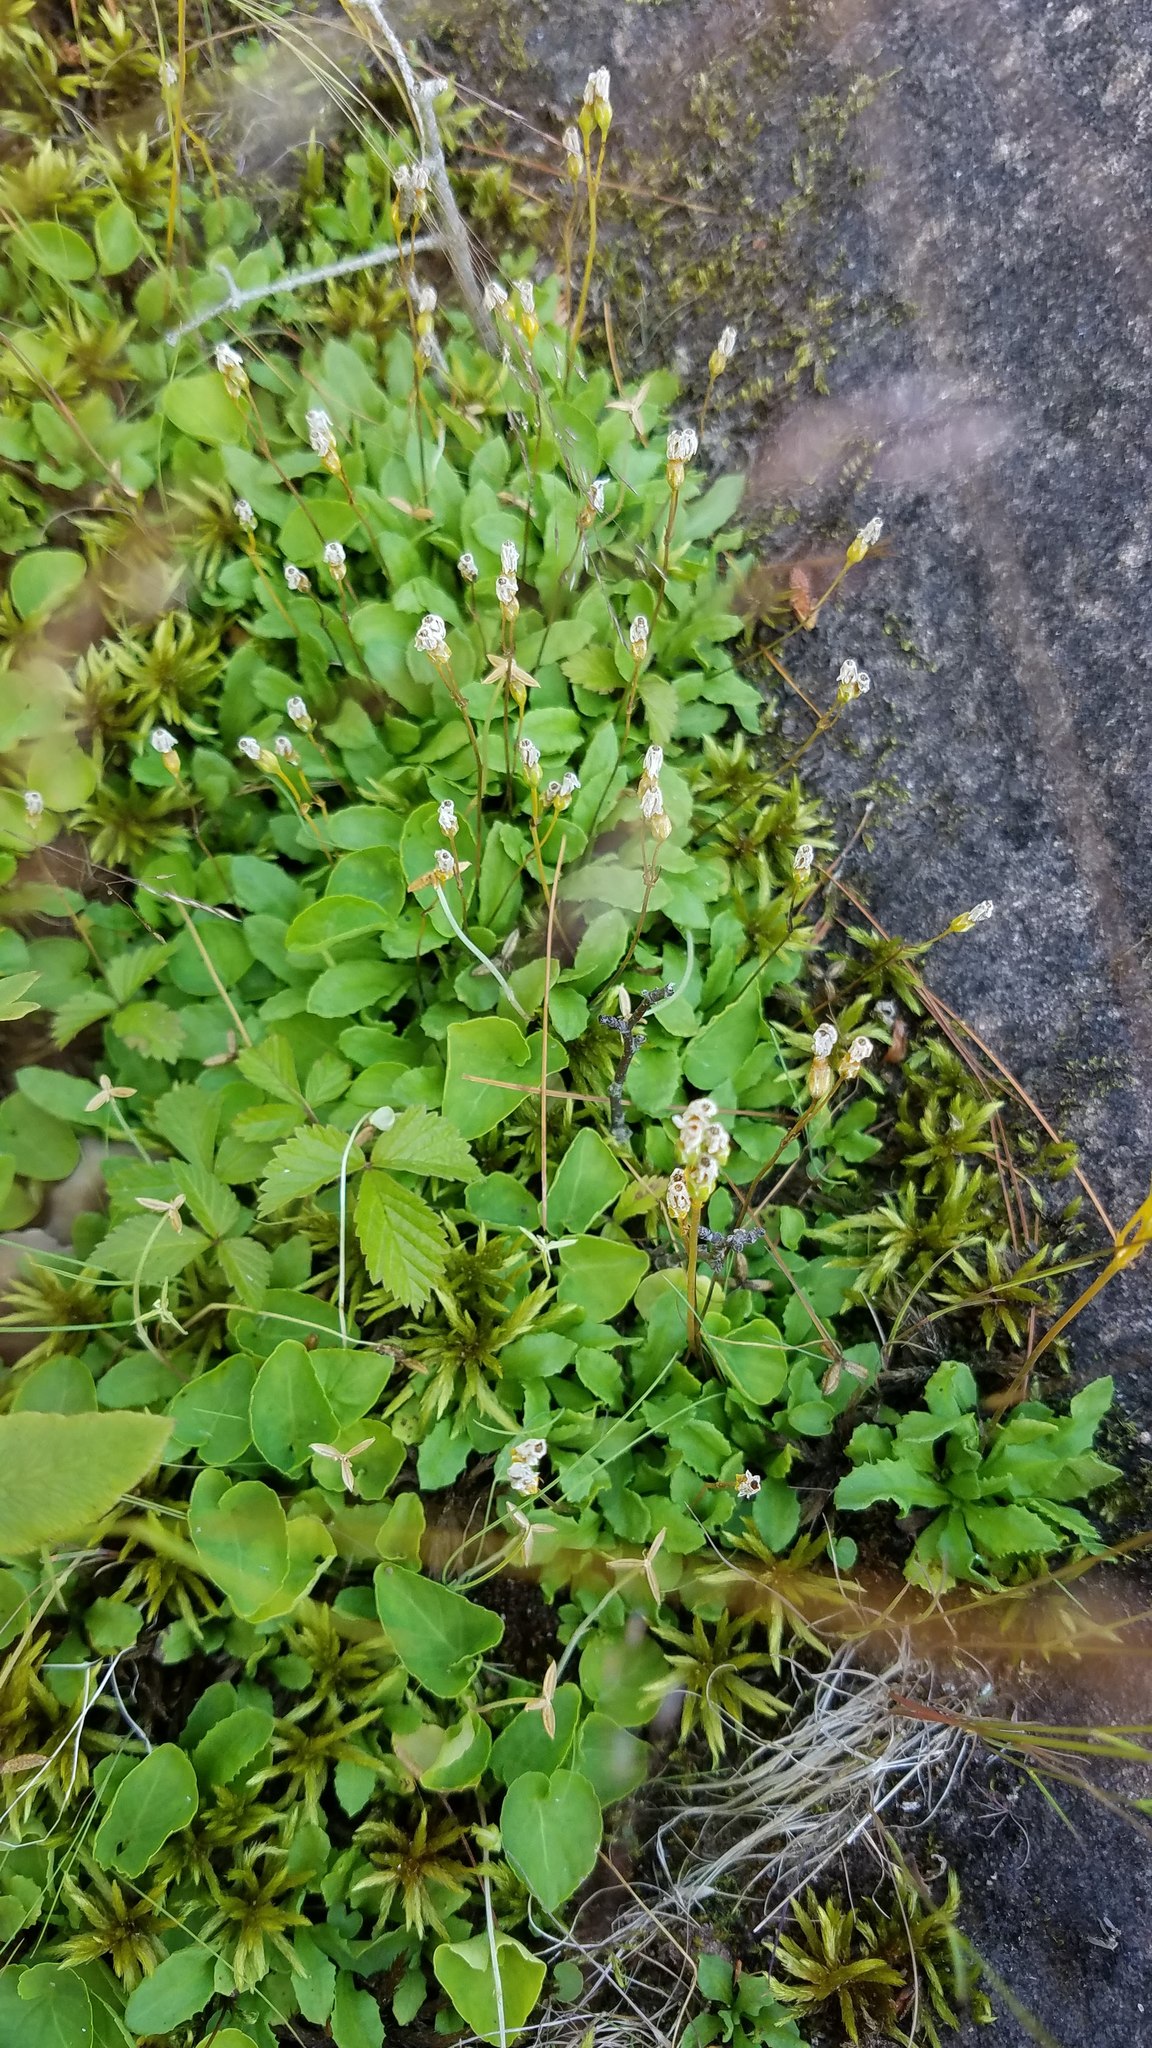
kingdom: Plantae
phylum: Tracheophyta
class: Magnoliopsida
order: Ericales
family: Primulaceae
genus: Primula
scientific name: Primula mistassinica
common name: Bird's-eye primrose
